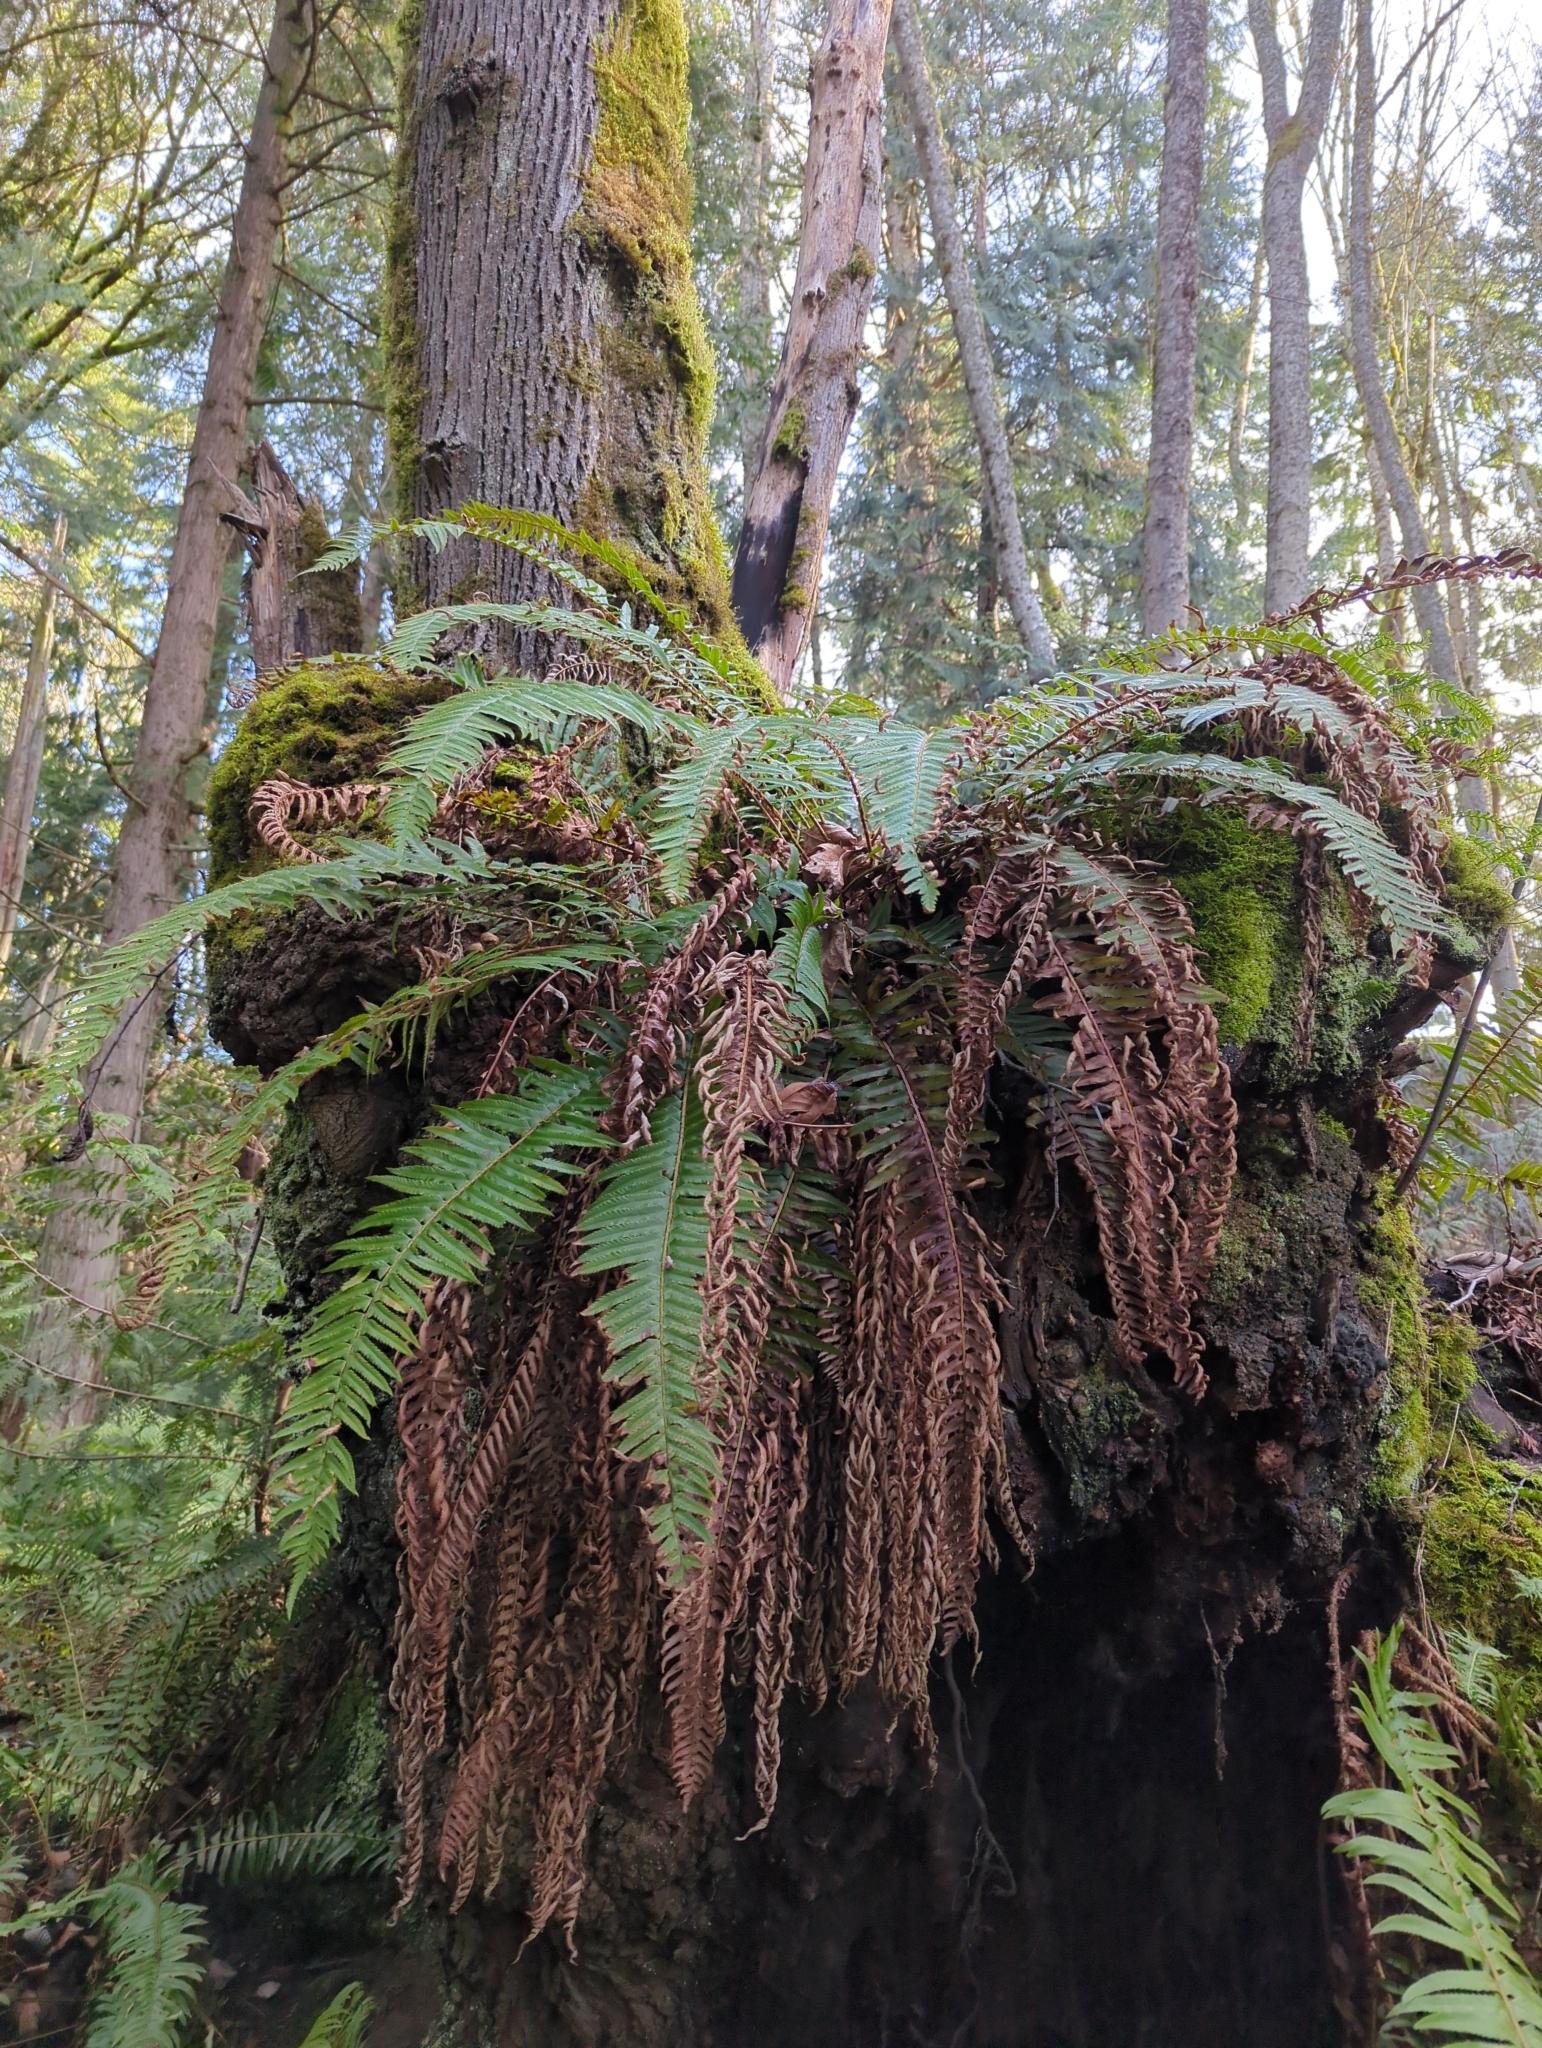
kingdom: Plantae
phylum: Tracheophyta
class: Polypodiopsida
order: Polypodiales
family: Dryopteridaceae
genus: Polystichum
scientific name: Polystichum munitum
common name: Western sword-fern
